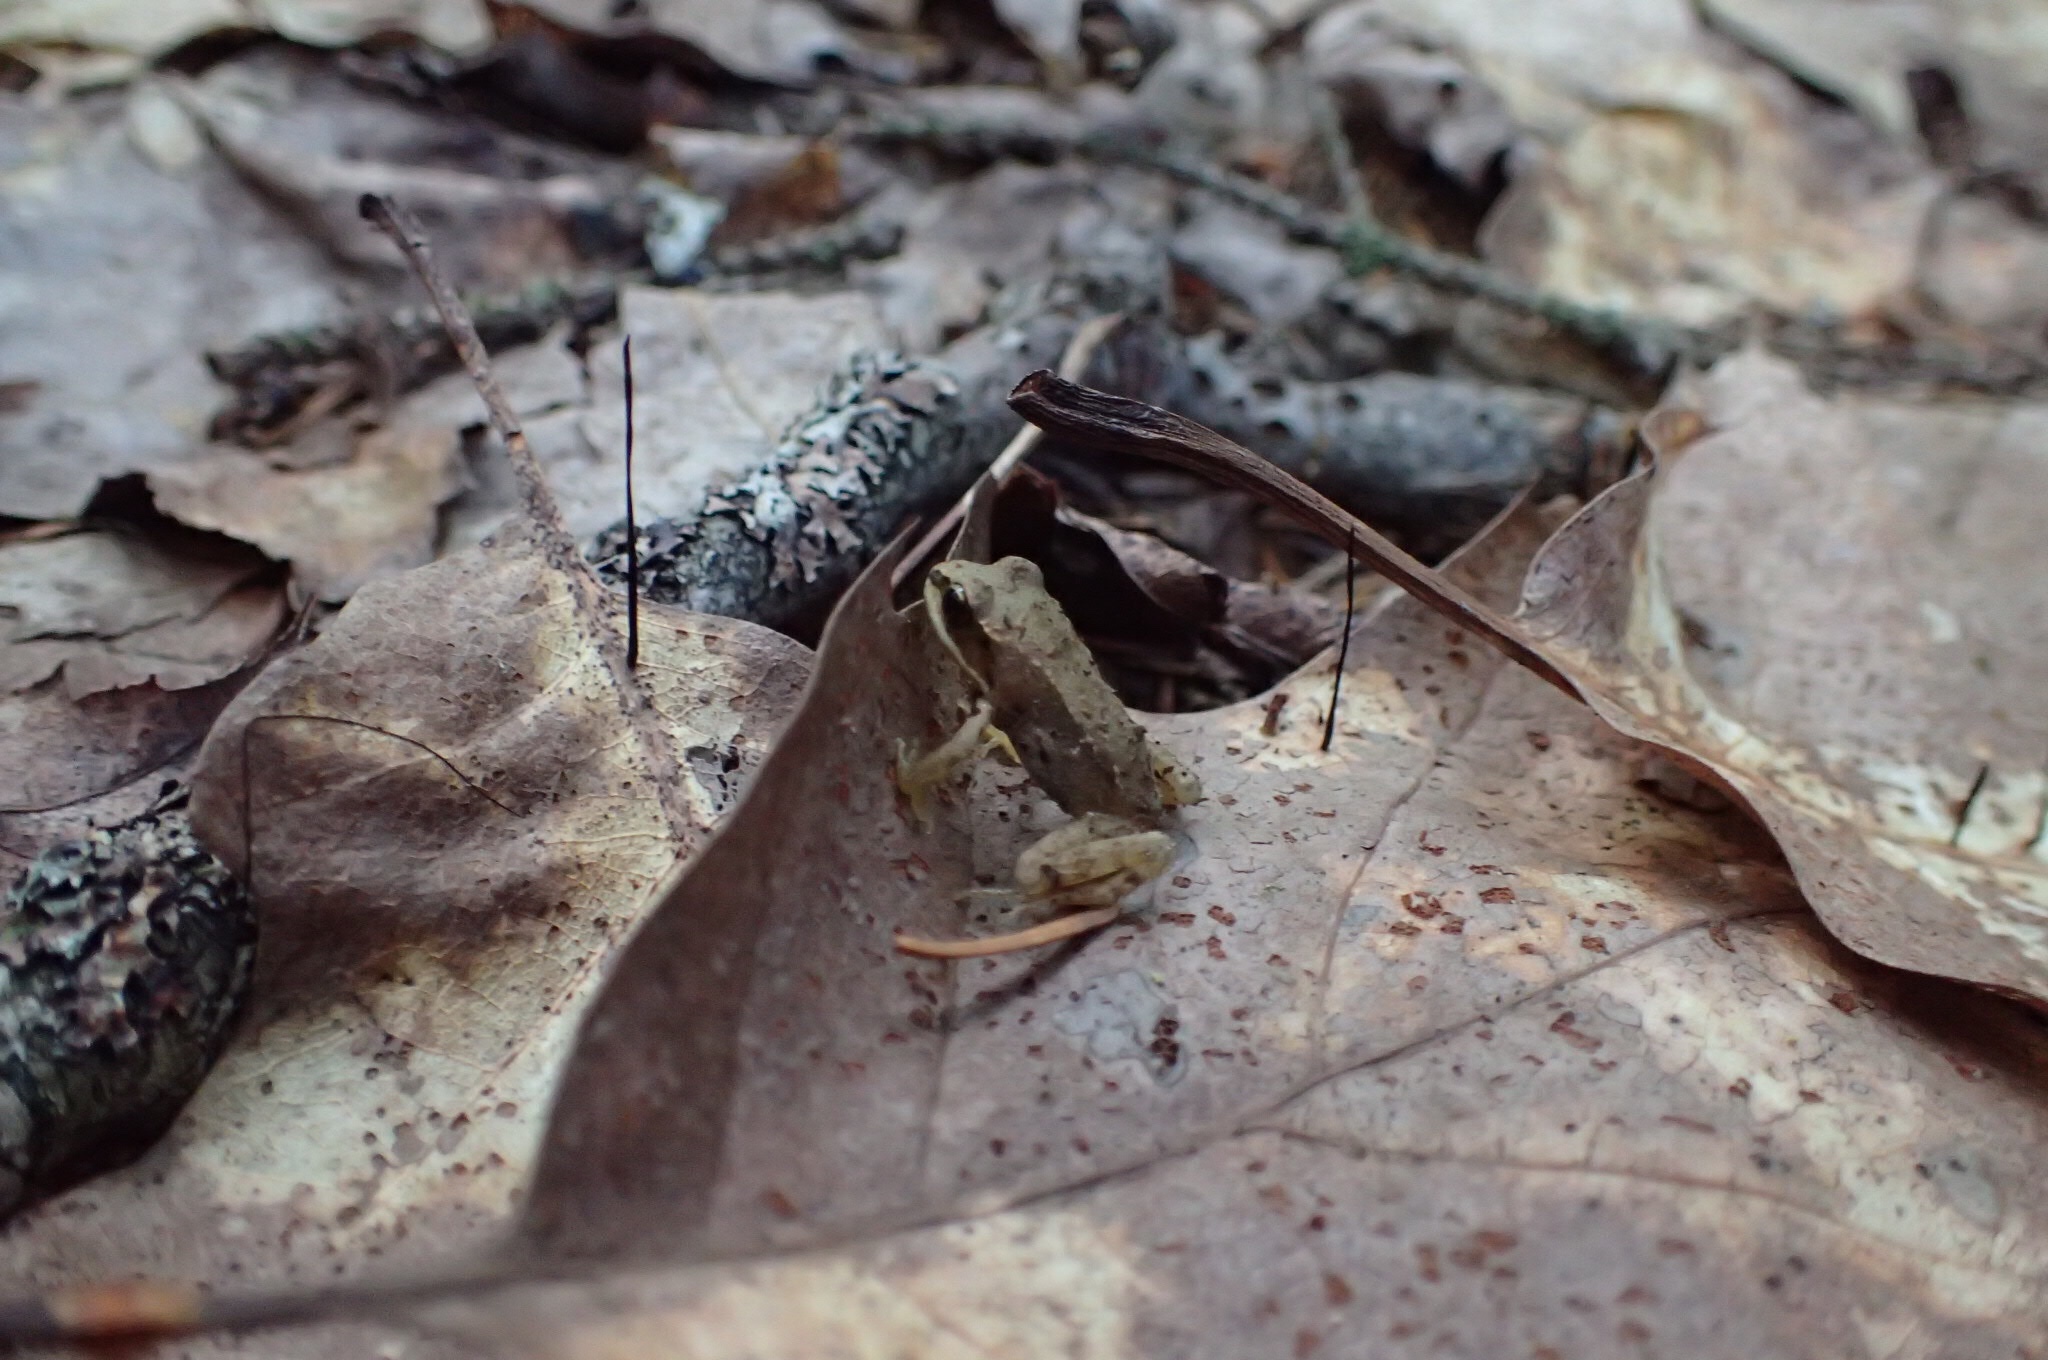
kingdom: Animalia
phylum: Chordata
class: Amphibia
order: Anura
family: Ranidae
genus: Lithobates
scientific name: Lithobates sylvaticus
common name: Wood frog
